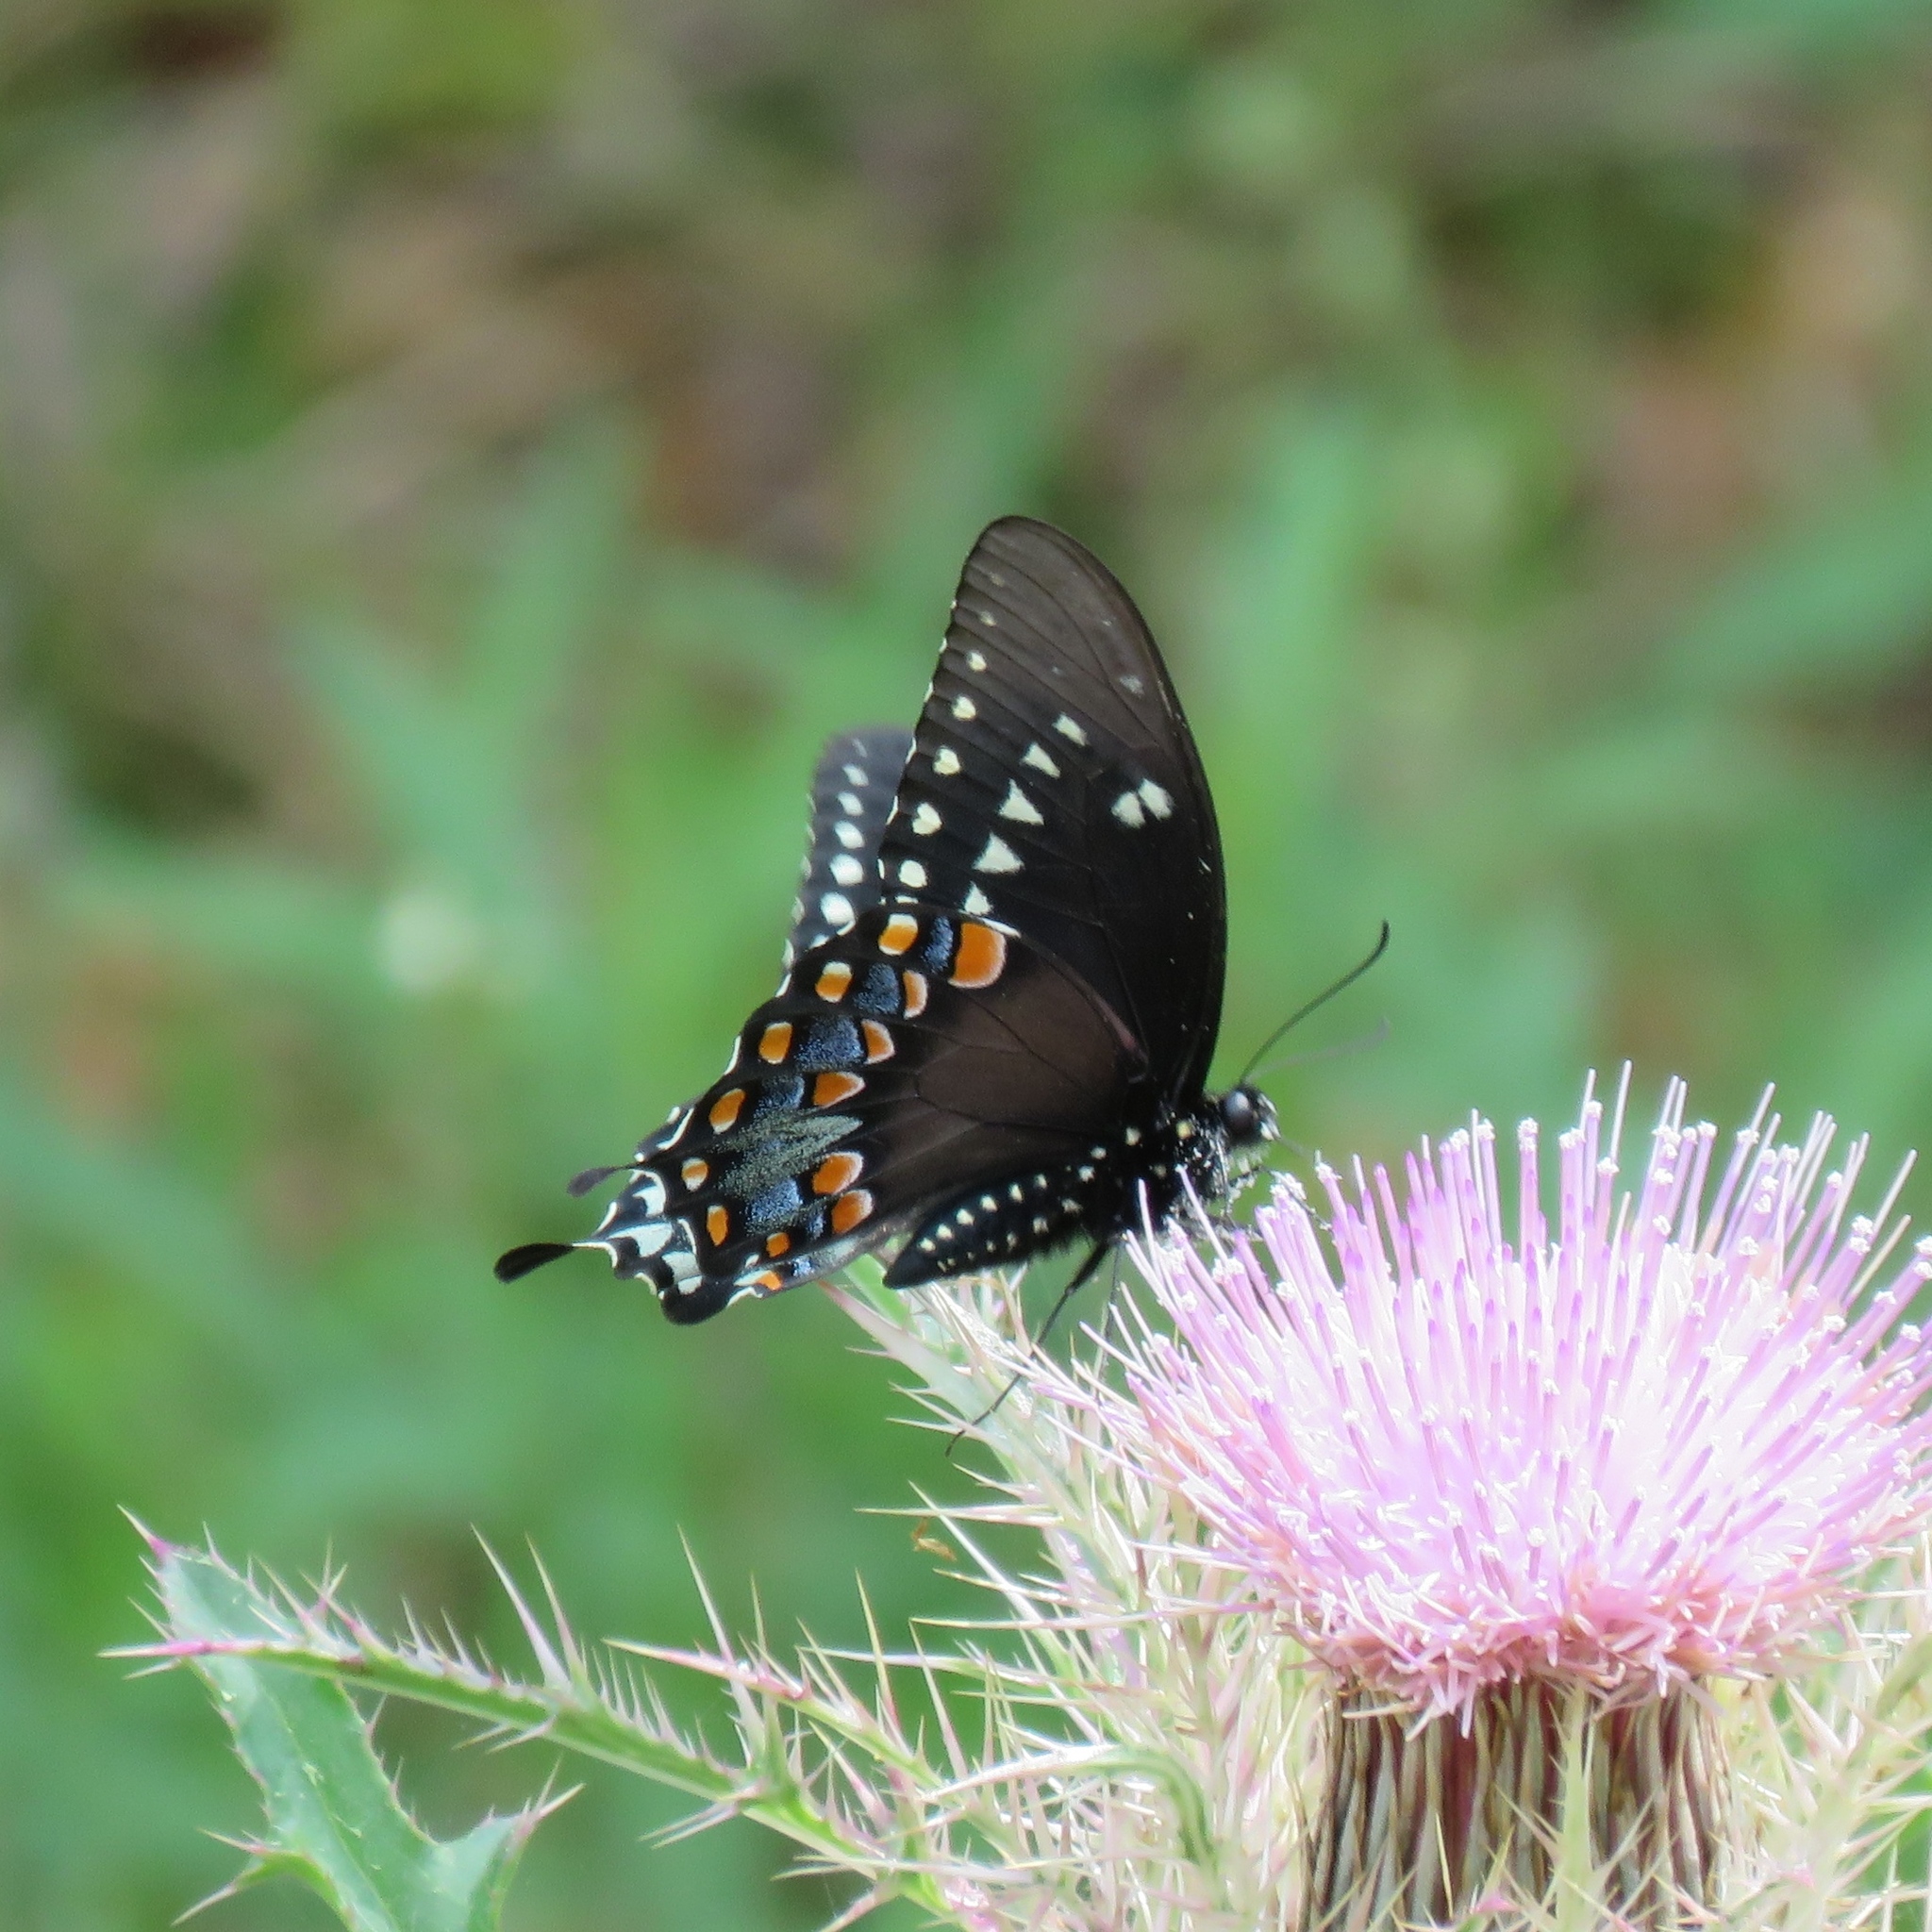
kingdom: Animalia
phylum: Arthropoda
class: Insecta
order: Lepidoptera
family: Papilionidae
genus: Papilio
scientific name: Papilio troilus
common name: Spicebush swallowtail
